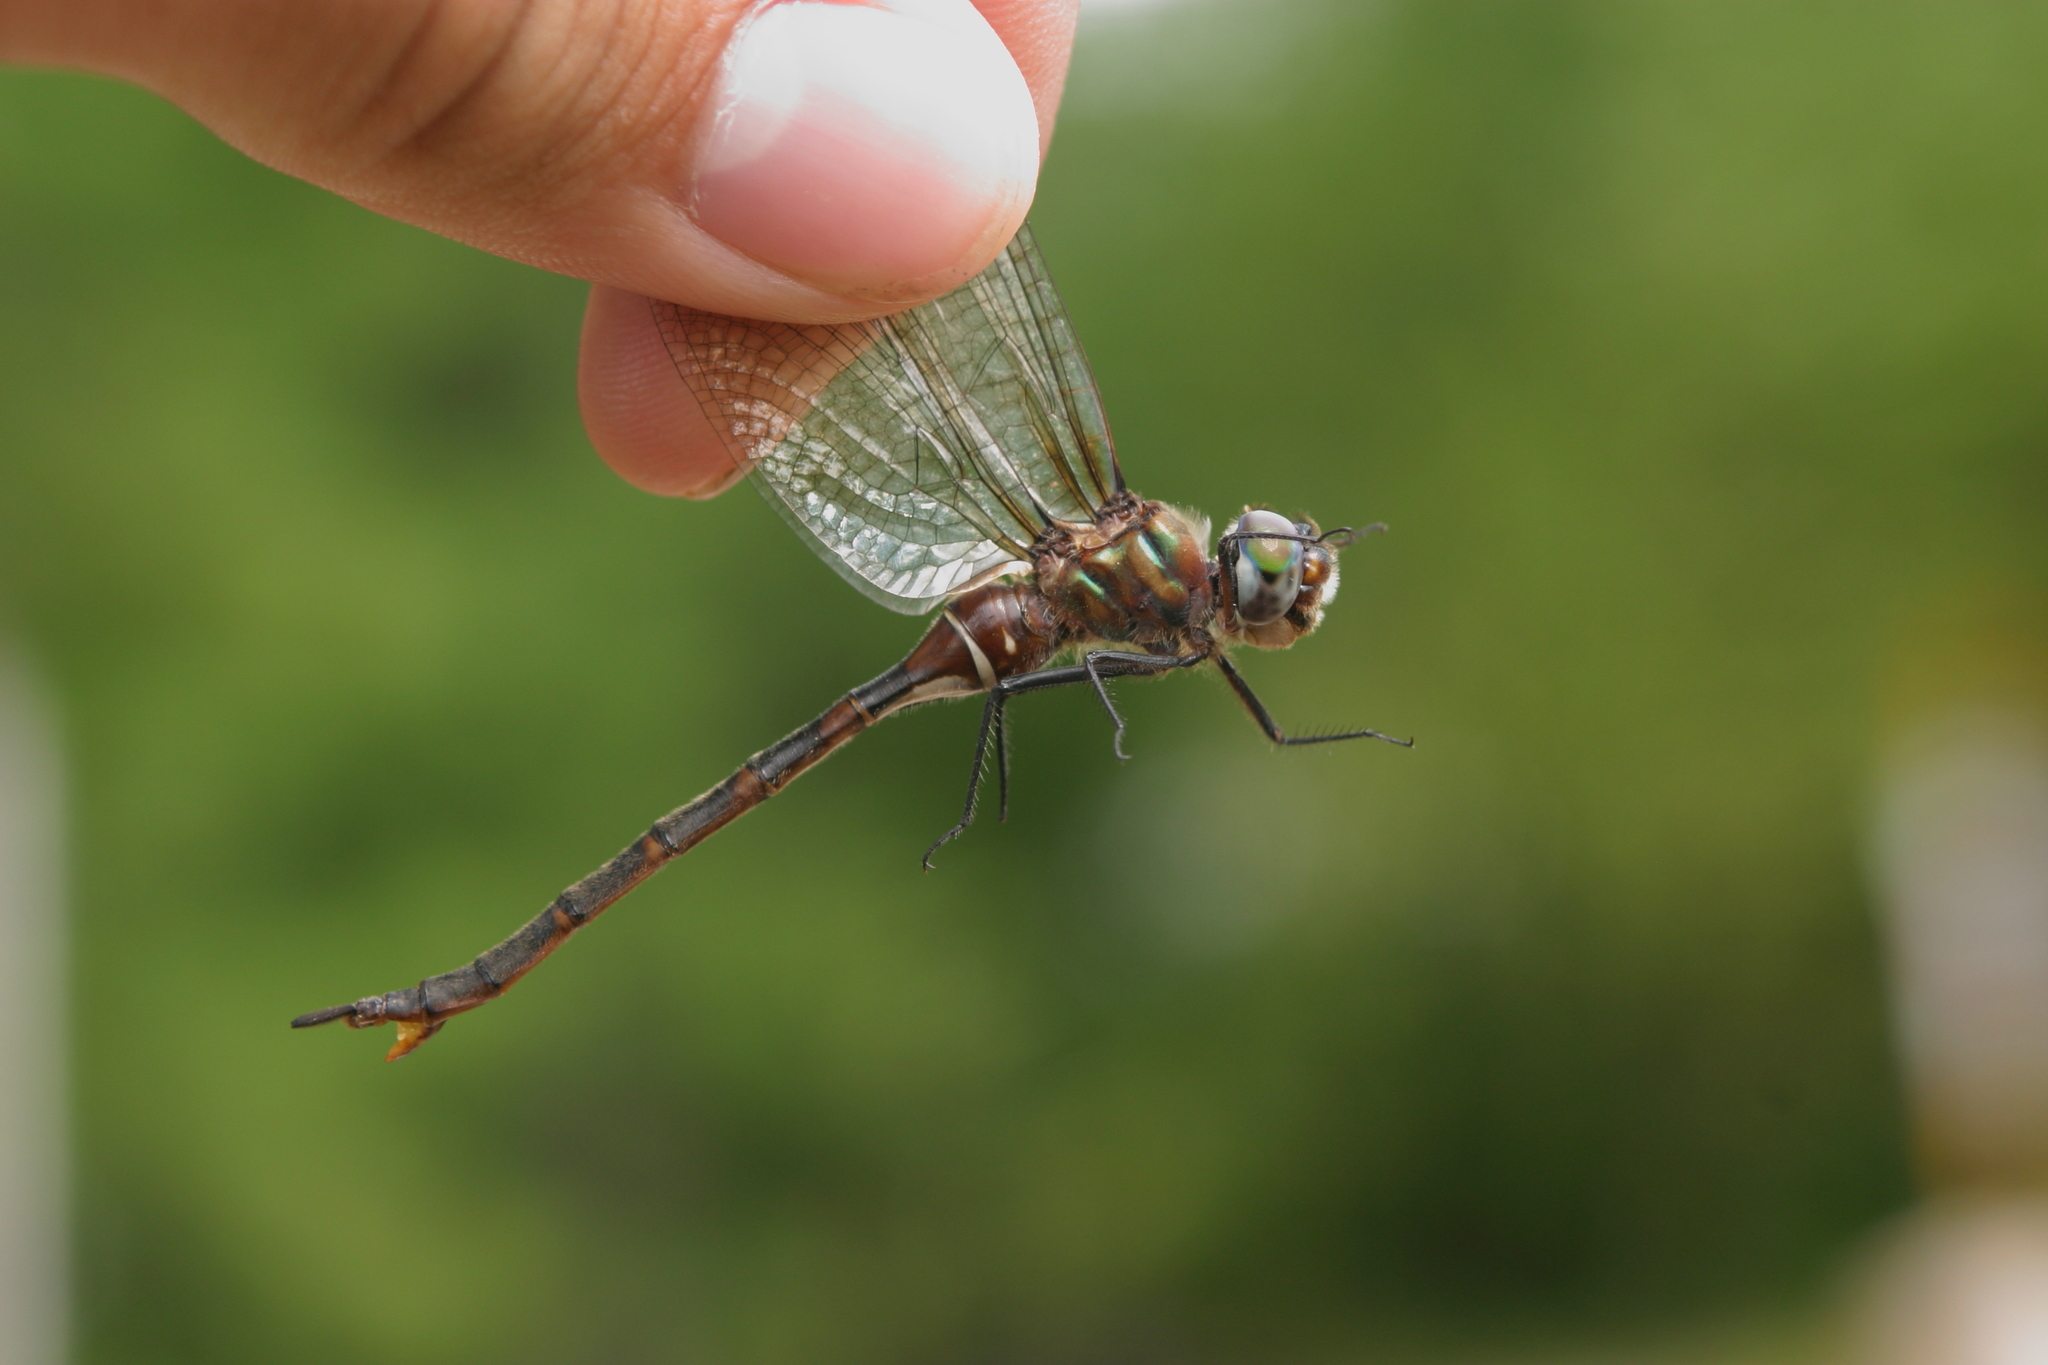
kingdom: Animalia
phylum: Arthropoda
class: Insecta
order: Odonata
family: Corduliidae
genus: Somatochlora
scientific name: Somatochlora incurvata
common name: Incurvate emerald
